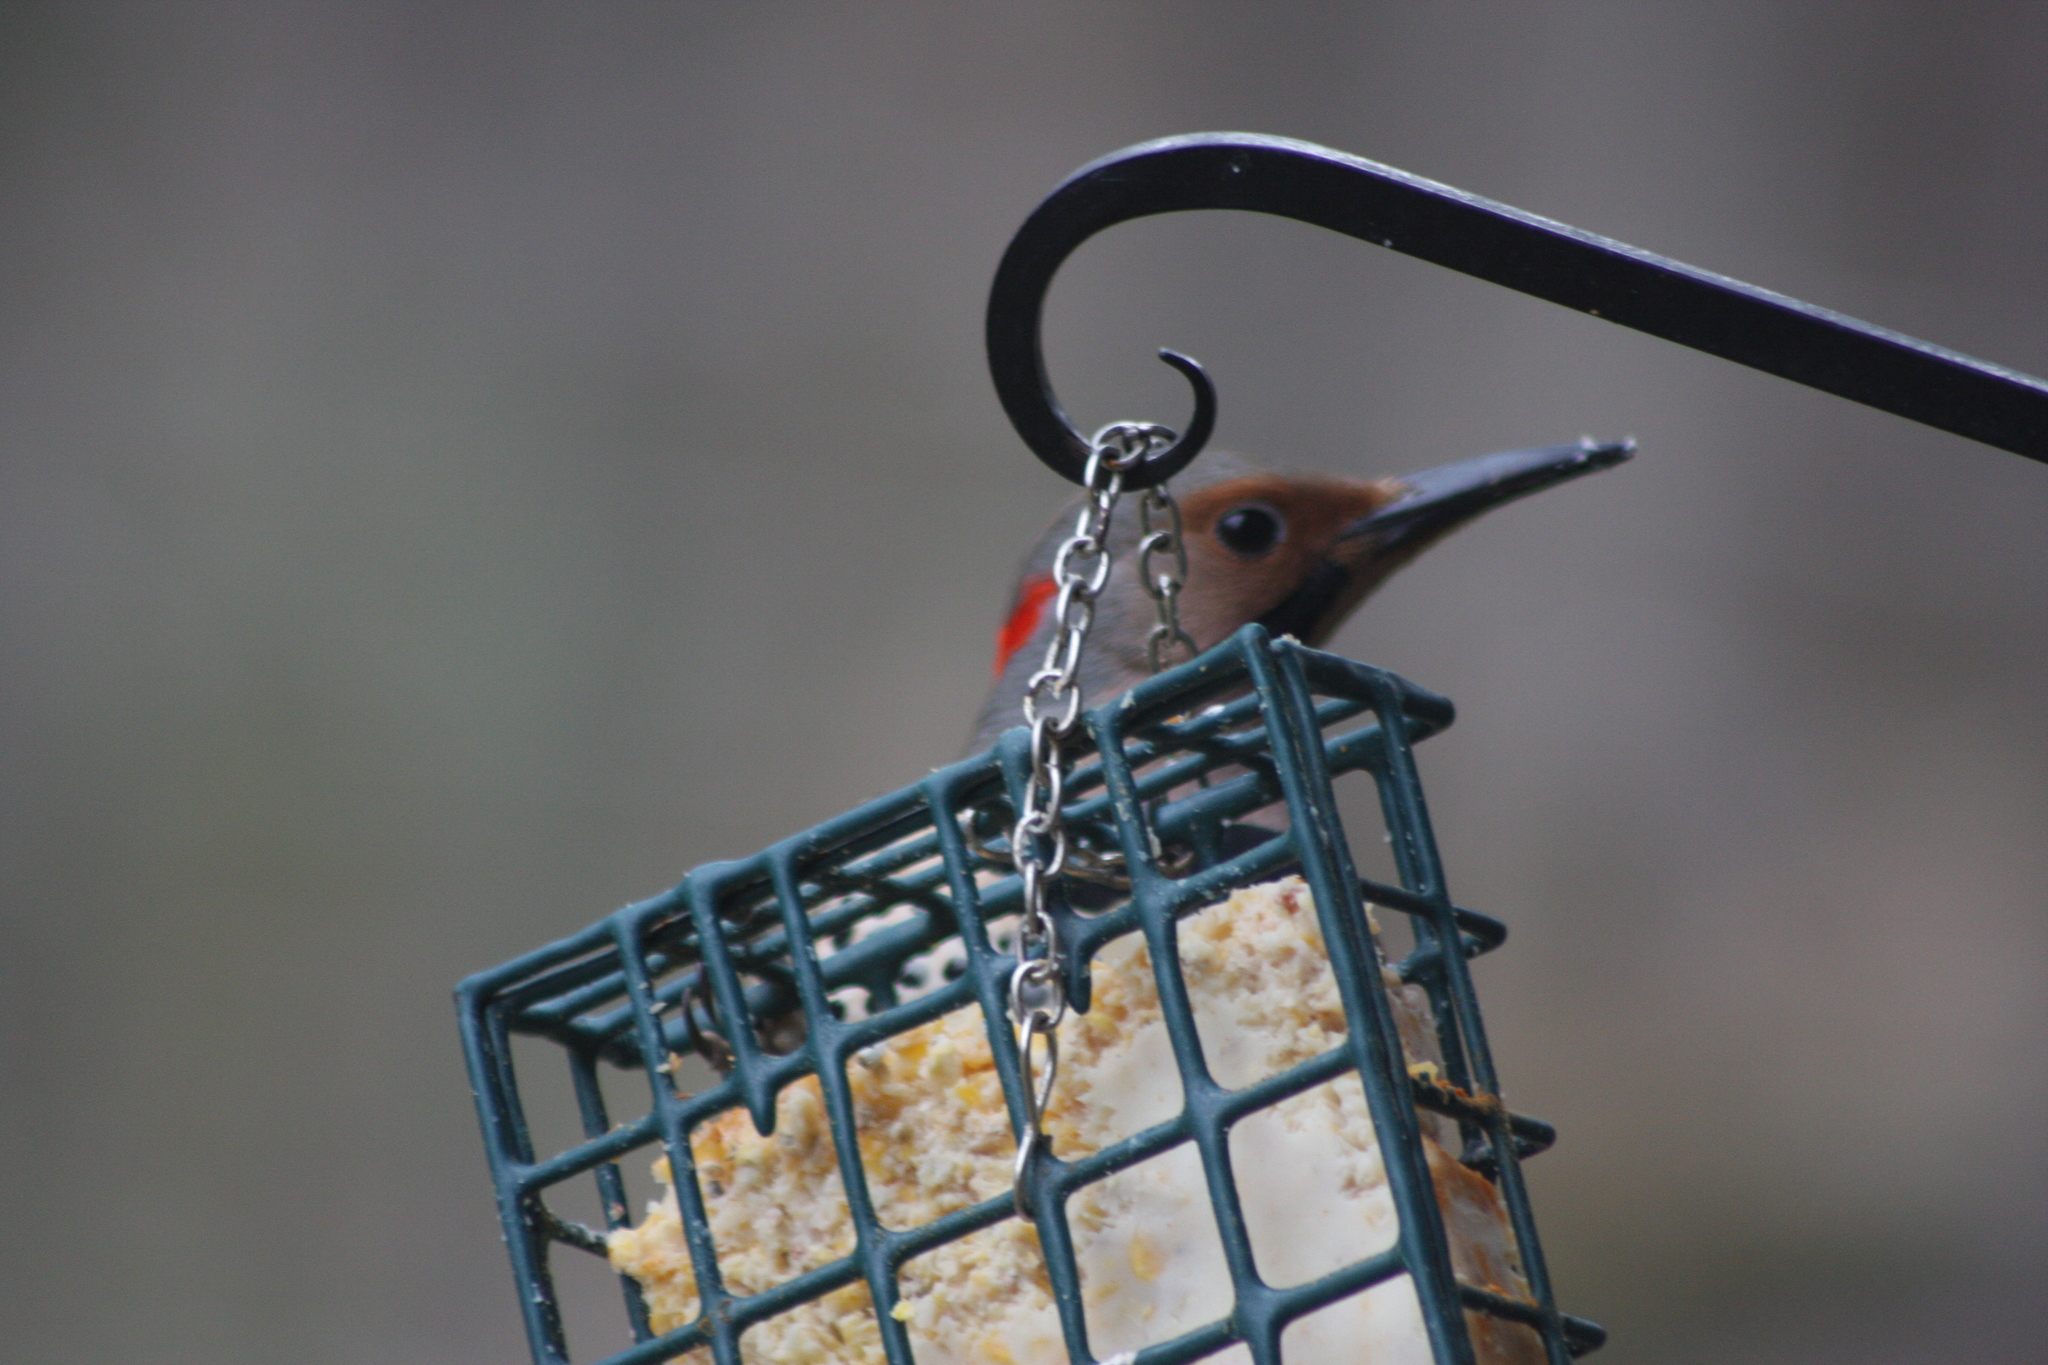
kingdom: Animalia
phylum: Chordata
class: Aves
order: Piciformes
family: Picidae
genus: Colaptes
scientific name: Colaptes auratus
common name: Northern flicker
